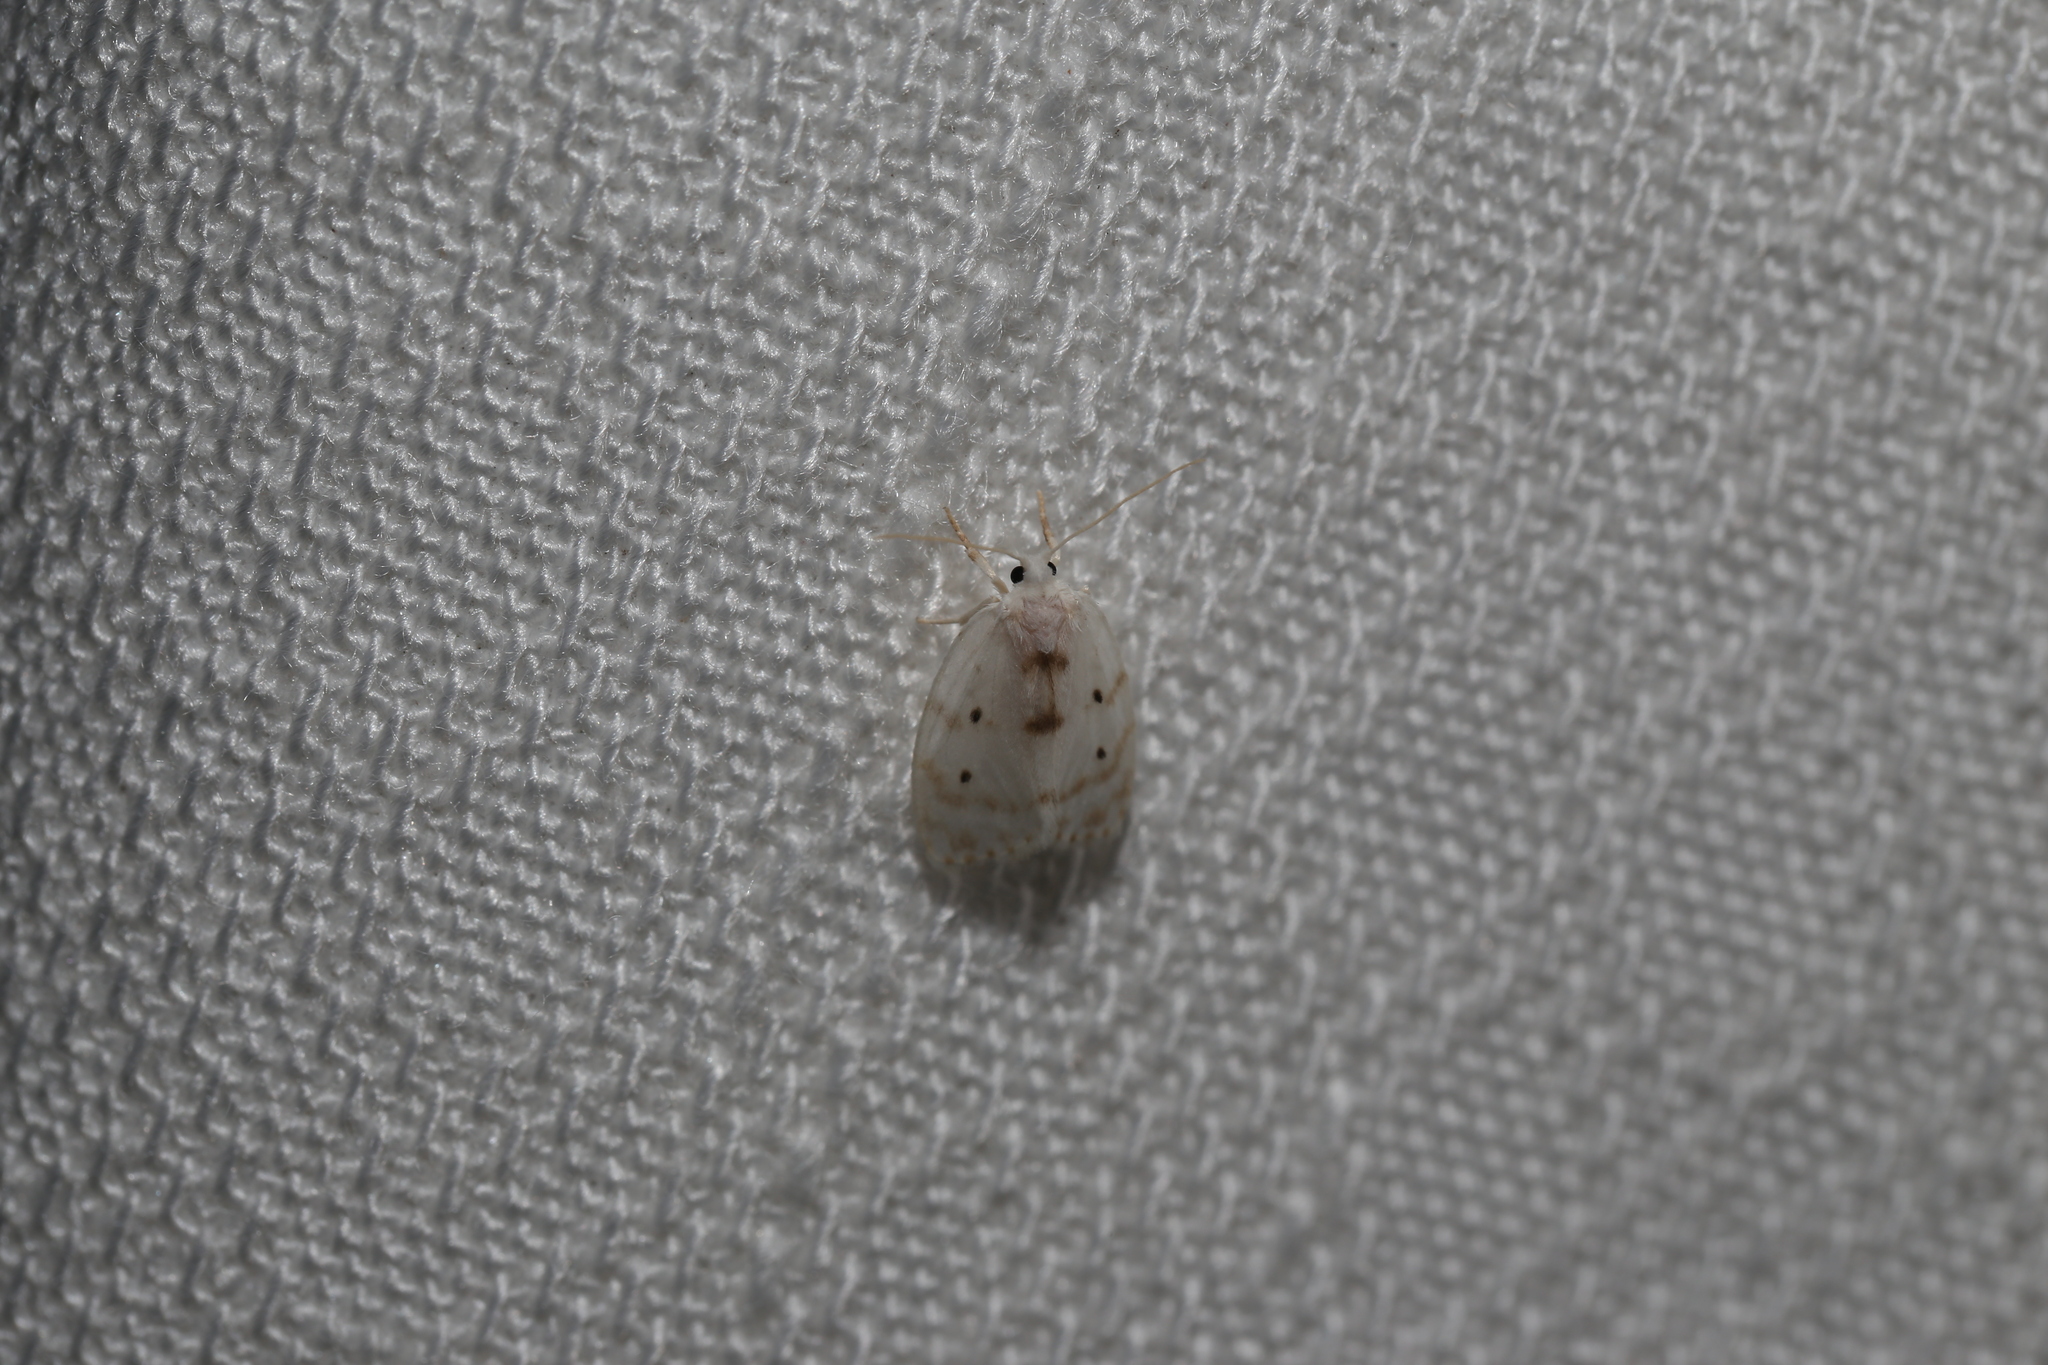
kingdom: Animalia
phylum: Arthropoda
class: Insecta
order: Lepidoptera
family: Erebidae
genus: Schistophleps
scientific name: Schistophleps albida
